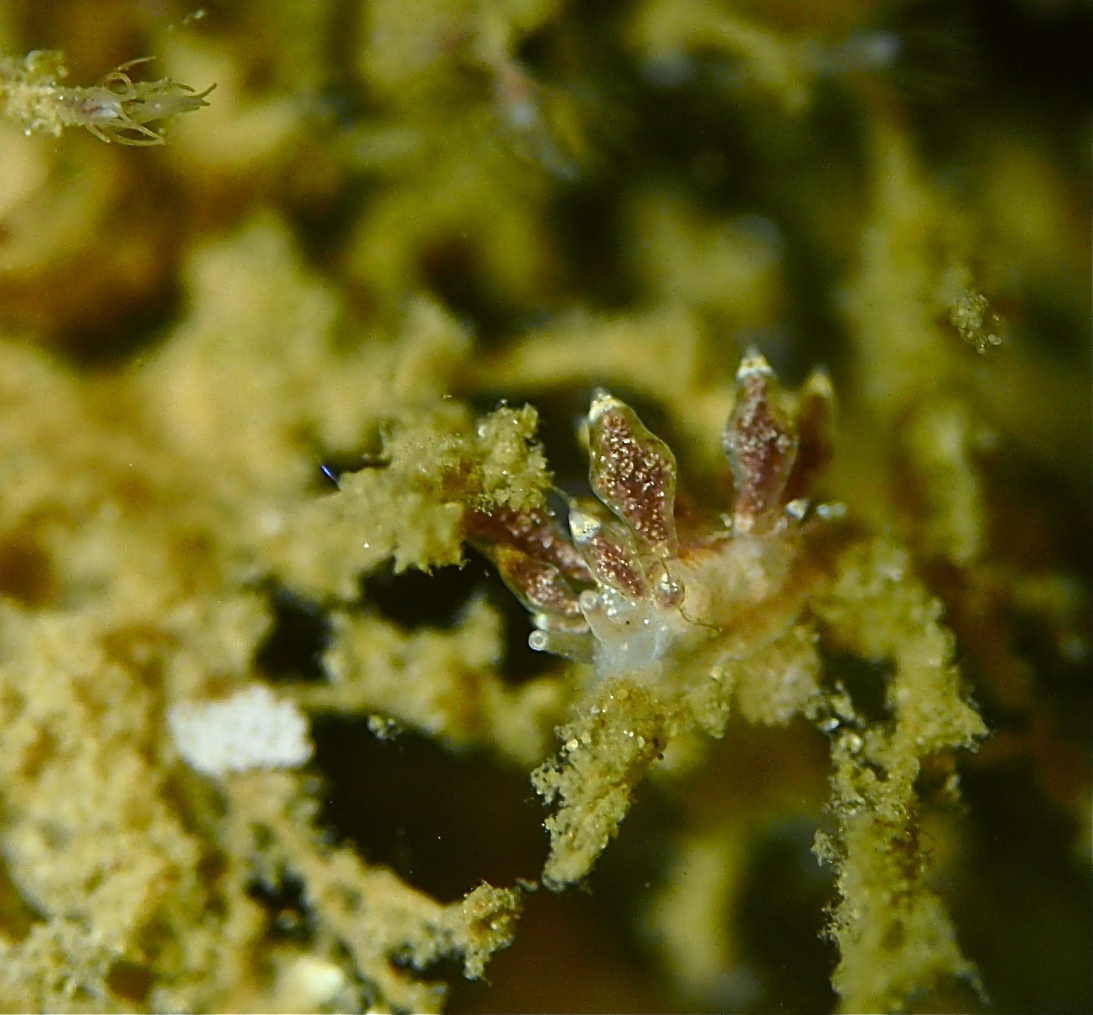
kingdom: Animalia
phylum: Mollusca
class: Gastropoda
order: Nudibranchia
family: Eubranchidae
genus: Eubranchus
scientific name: Eubranchus exiguus
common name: Balloon aeolis
